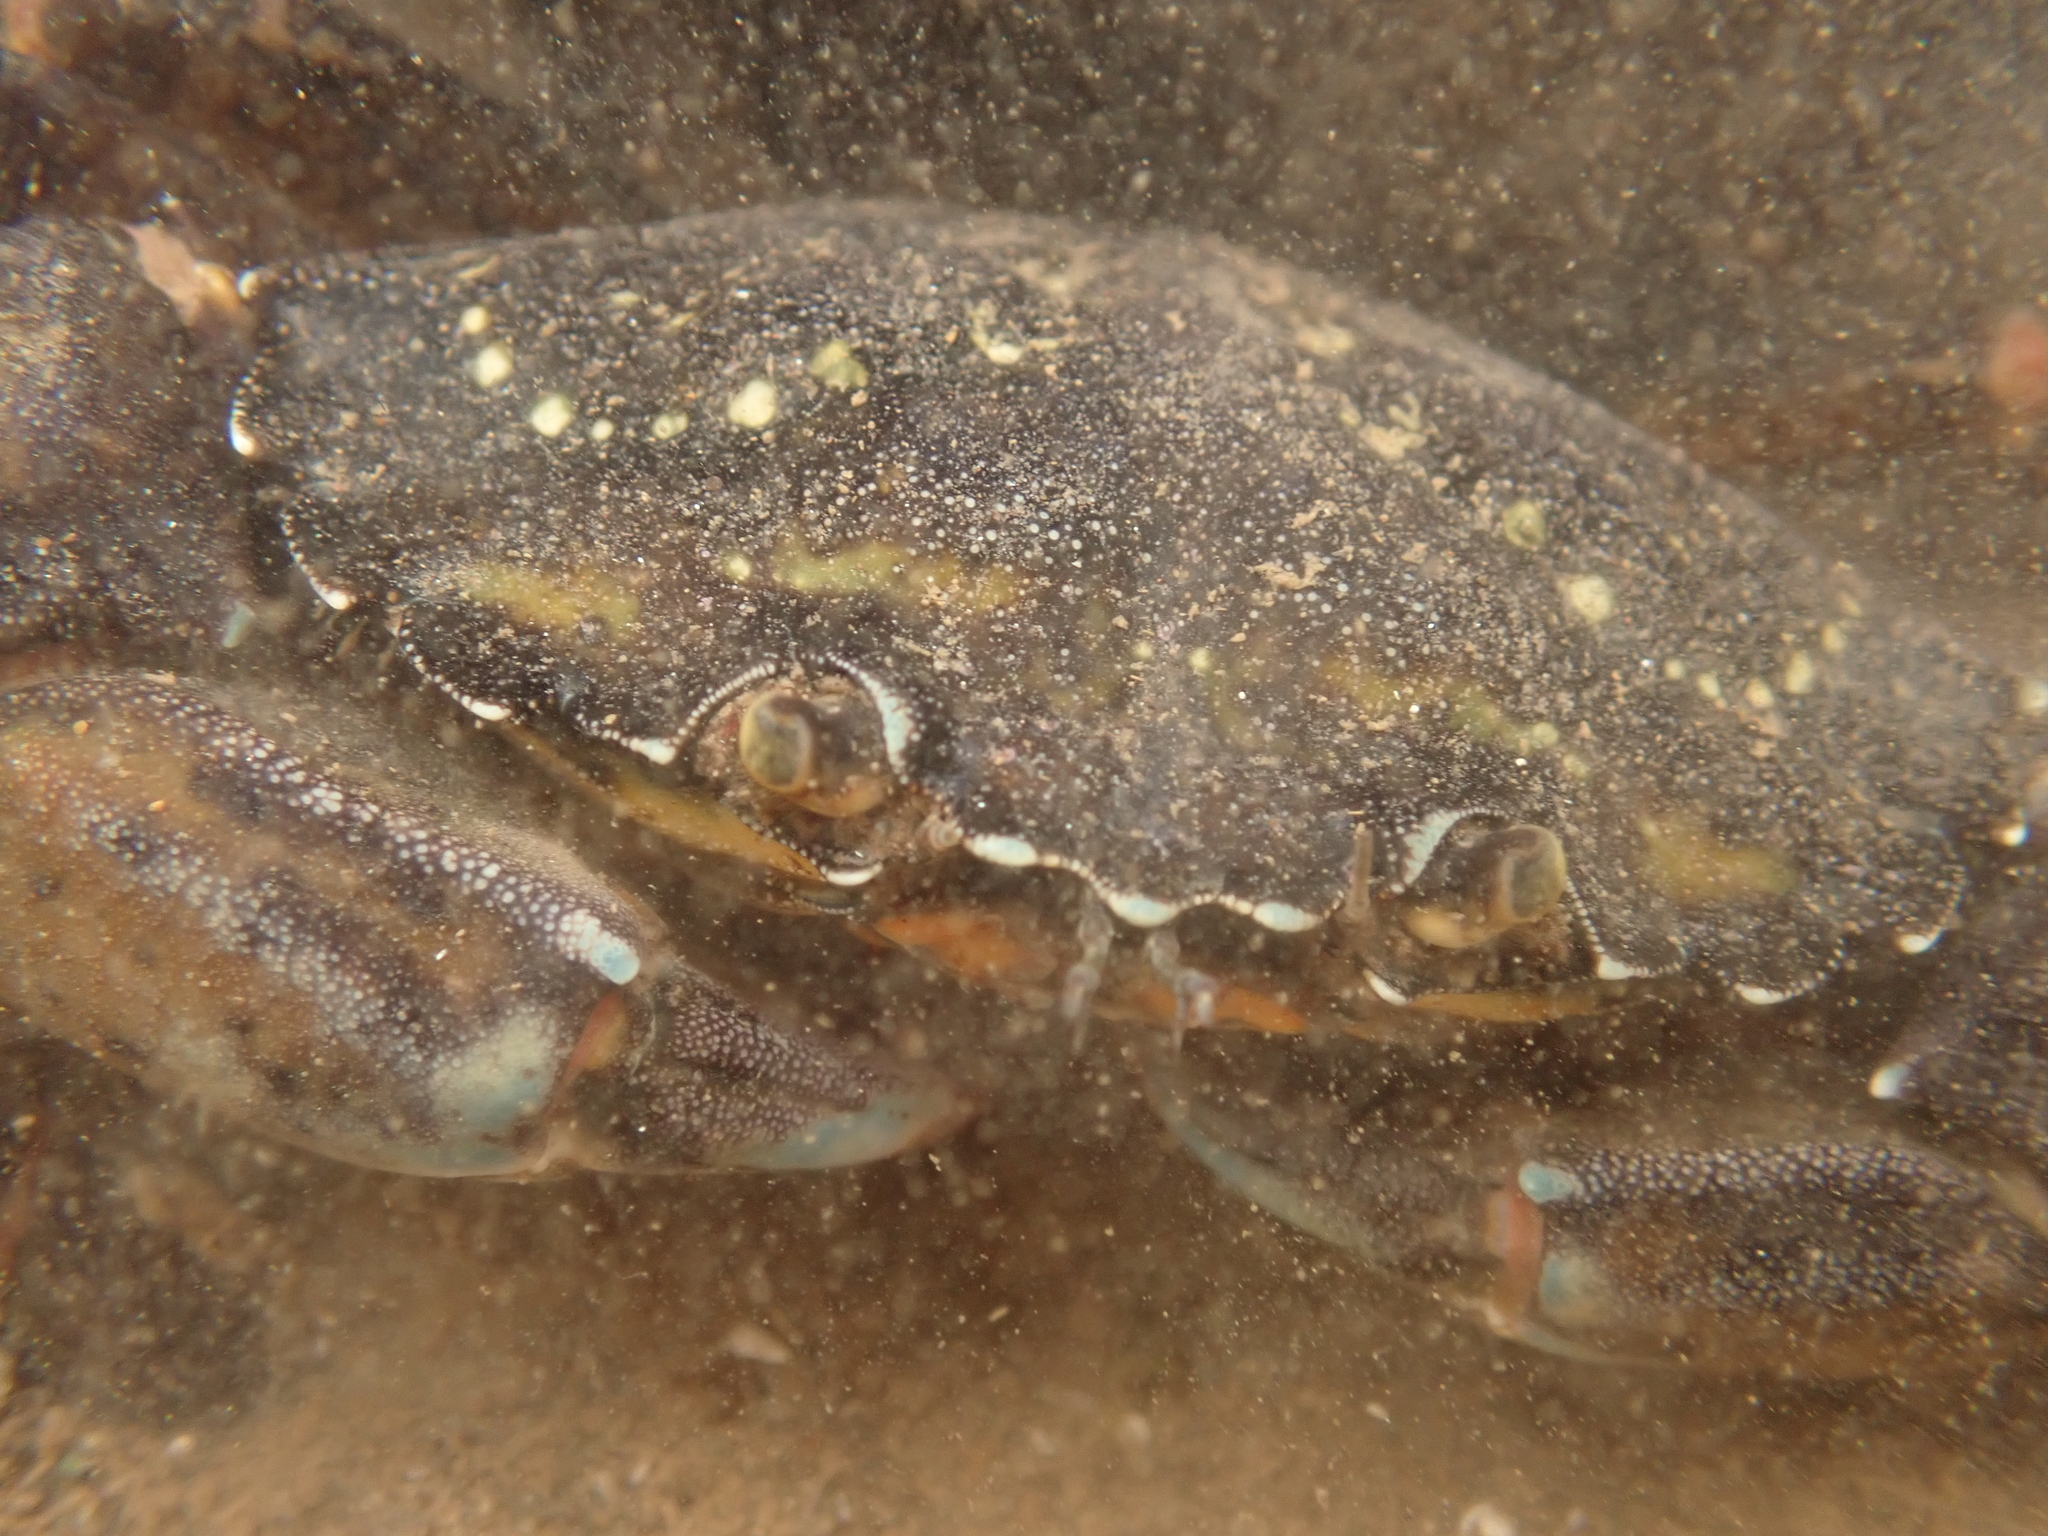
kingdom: Animalia
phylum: Arthropoda
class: Malacostraca
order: Decapoda
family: Carcinidae
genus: Carcinus
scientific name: Carcinus maenas
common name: European green crab
